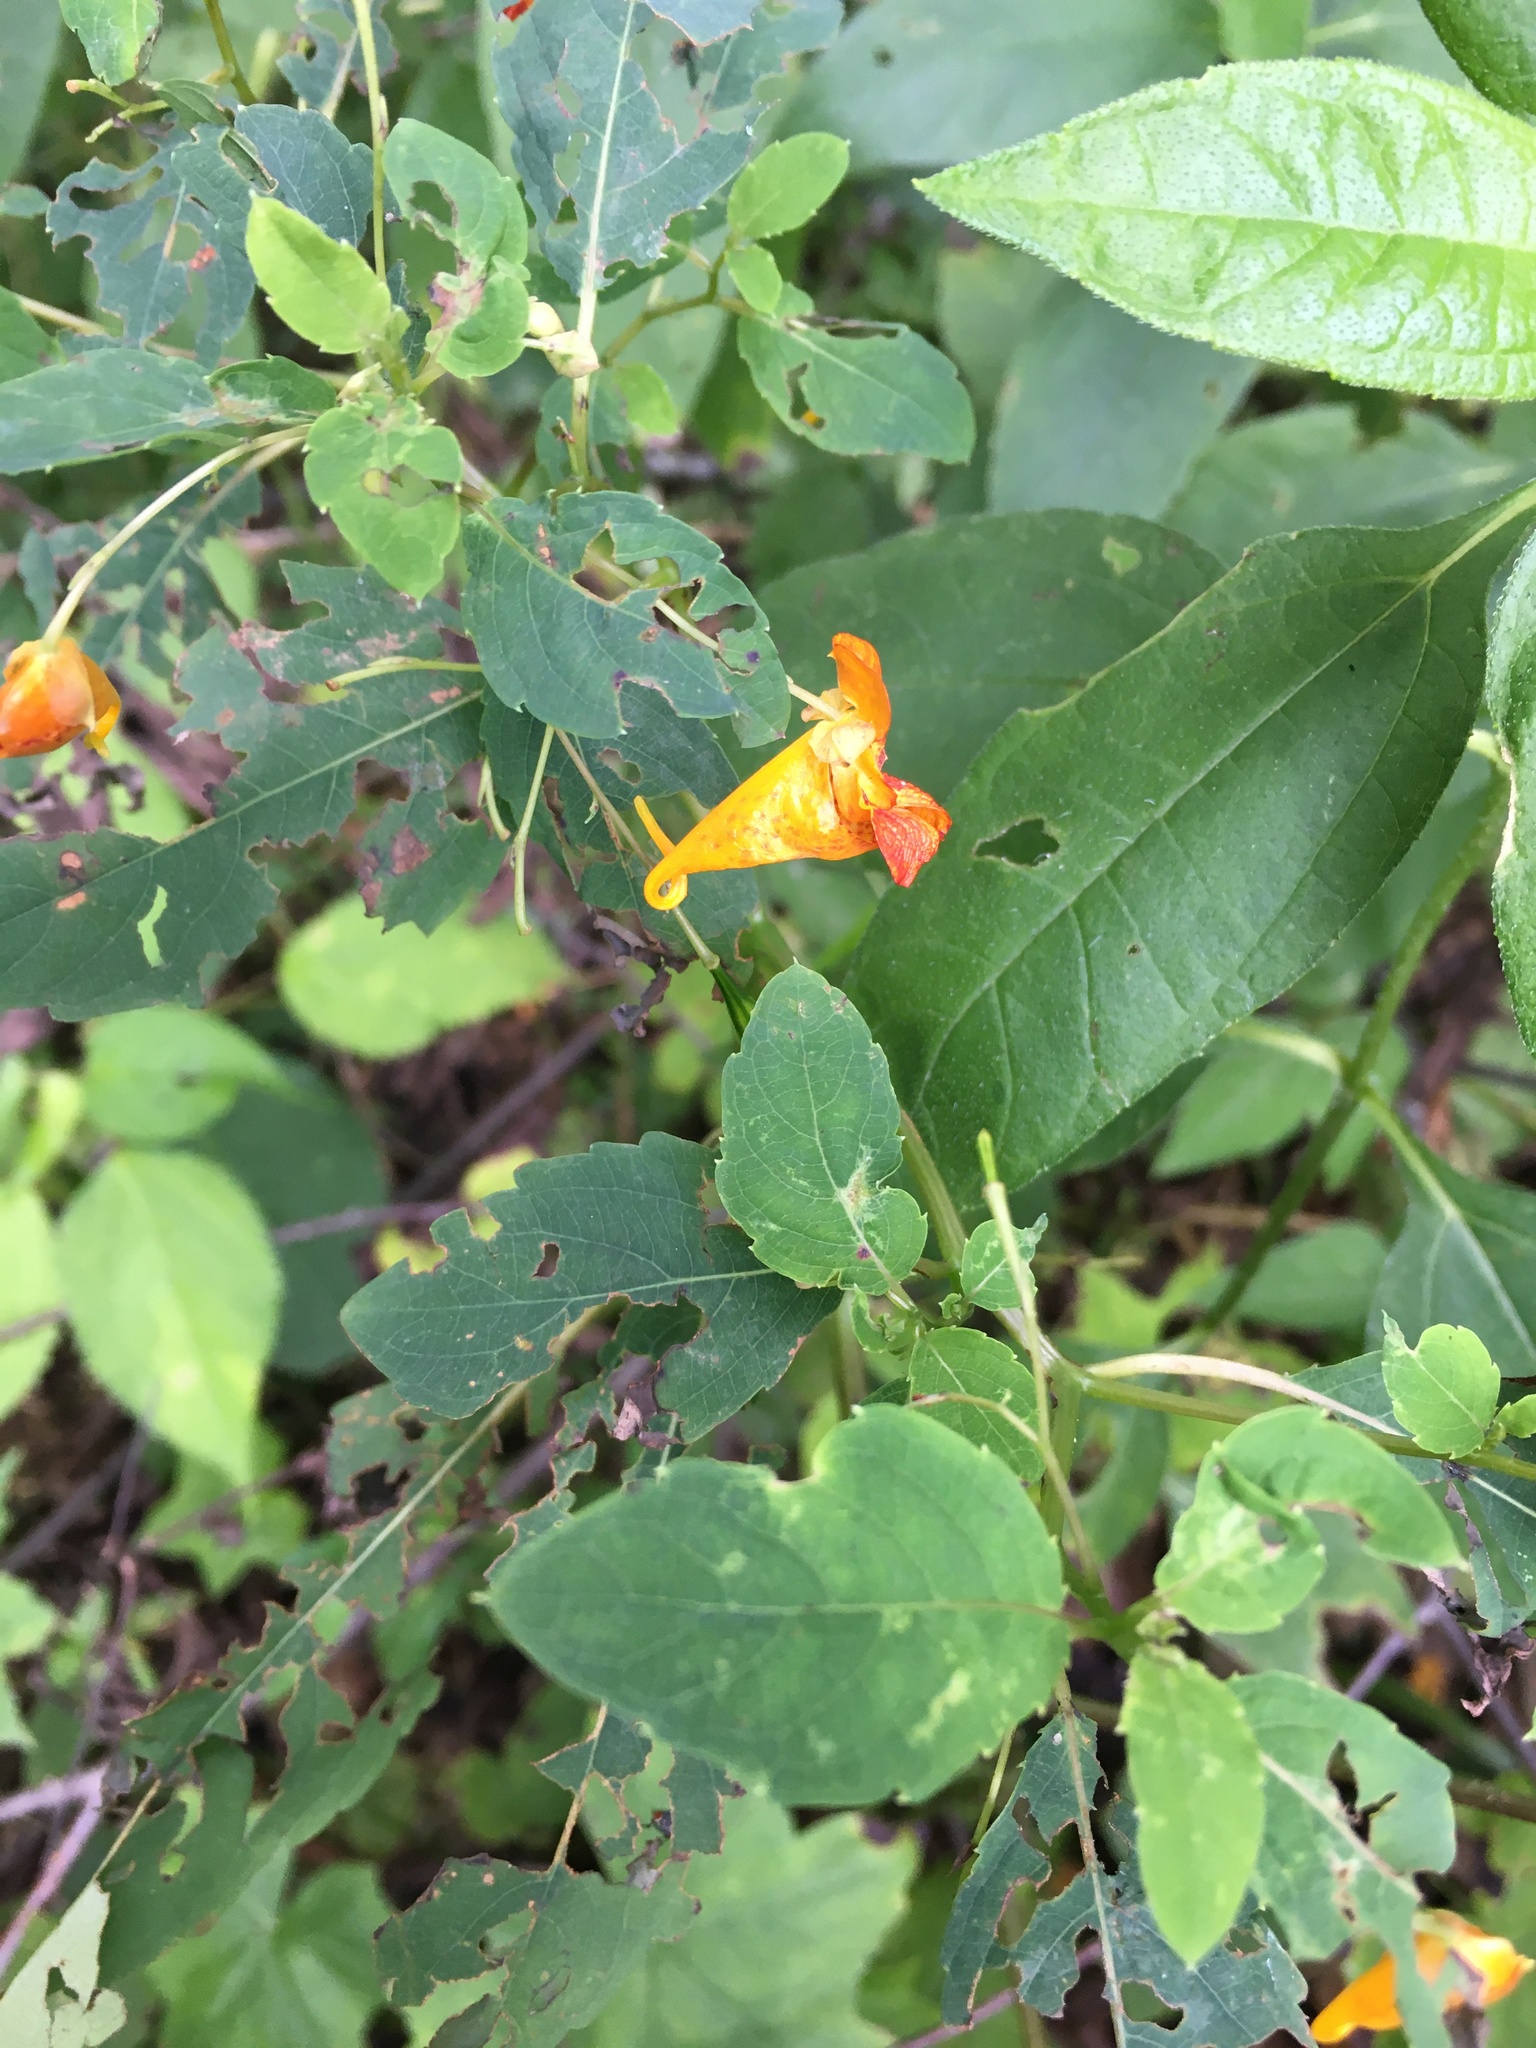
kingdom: Plantae
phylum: Tracheophyta
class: Magnoliopsida
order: Ericales
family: Balsaminaceae
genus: Impatiens
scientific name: Impatiens capensis
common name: Orange balsam
